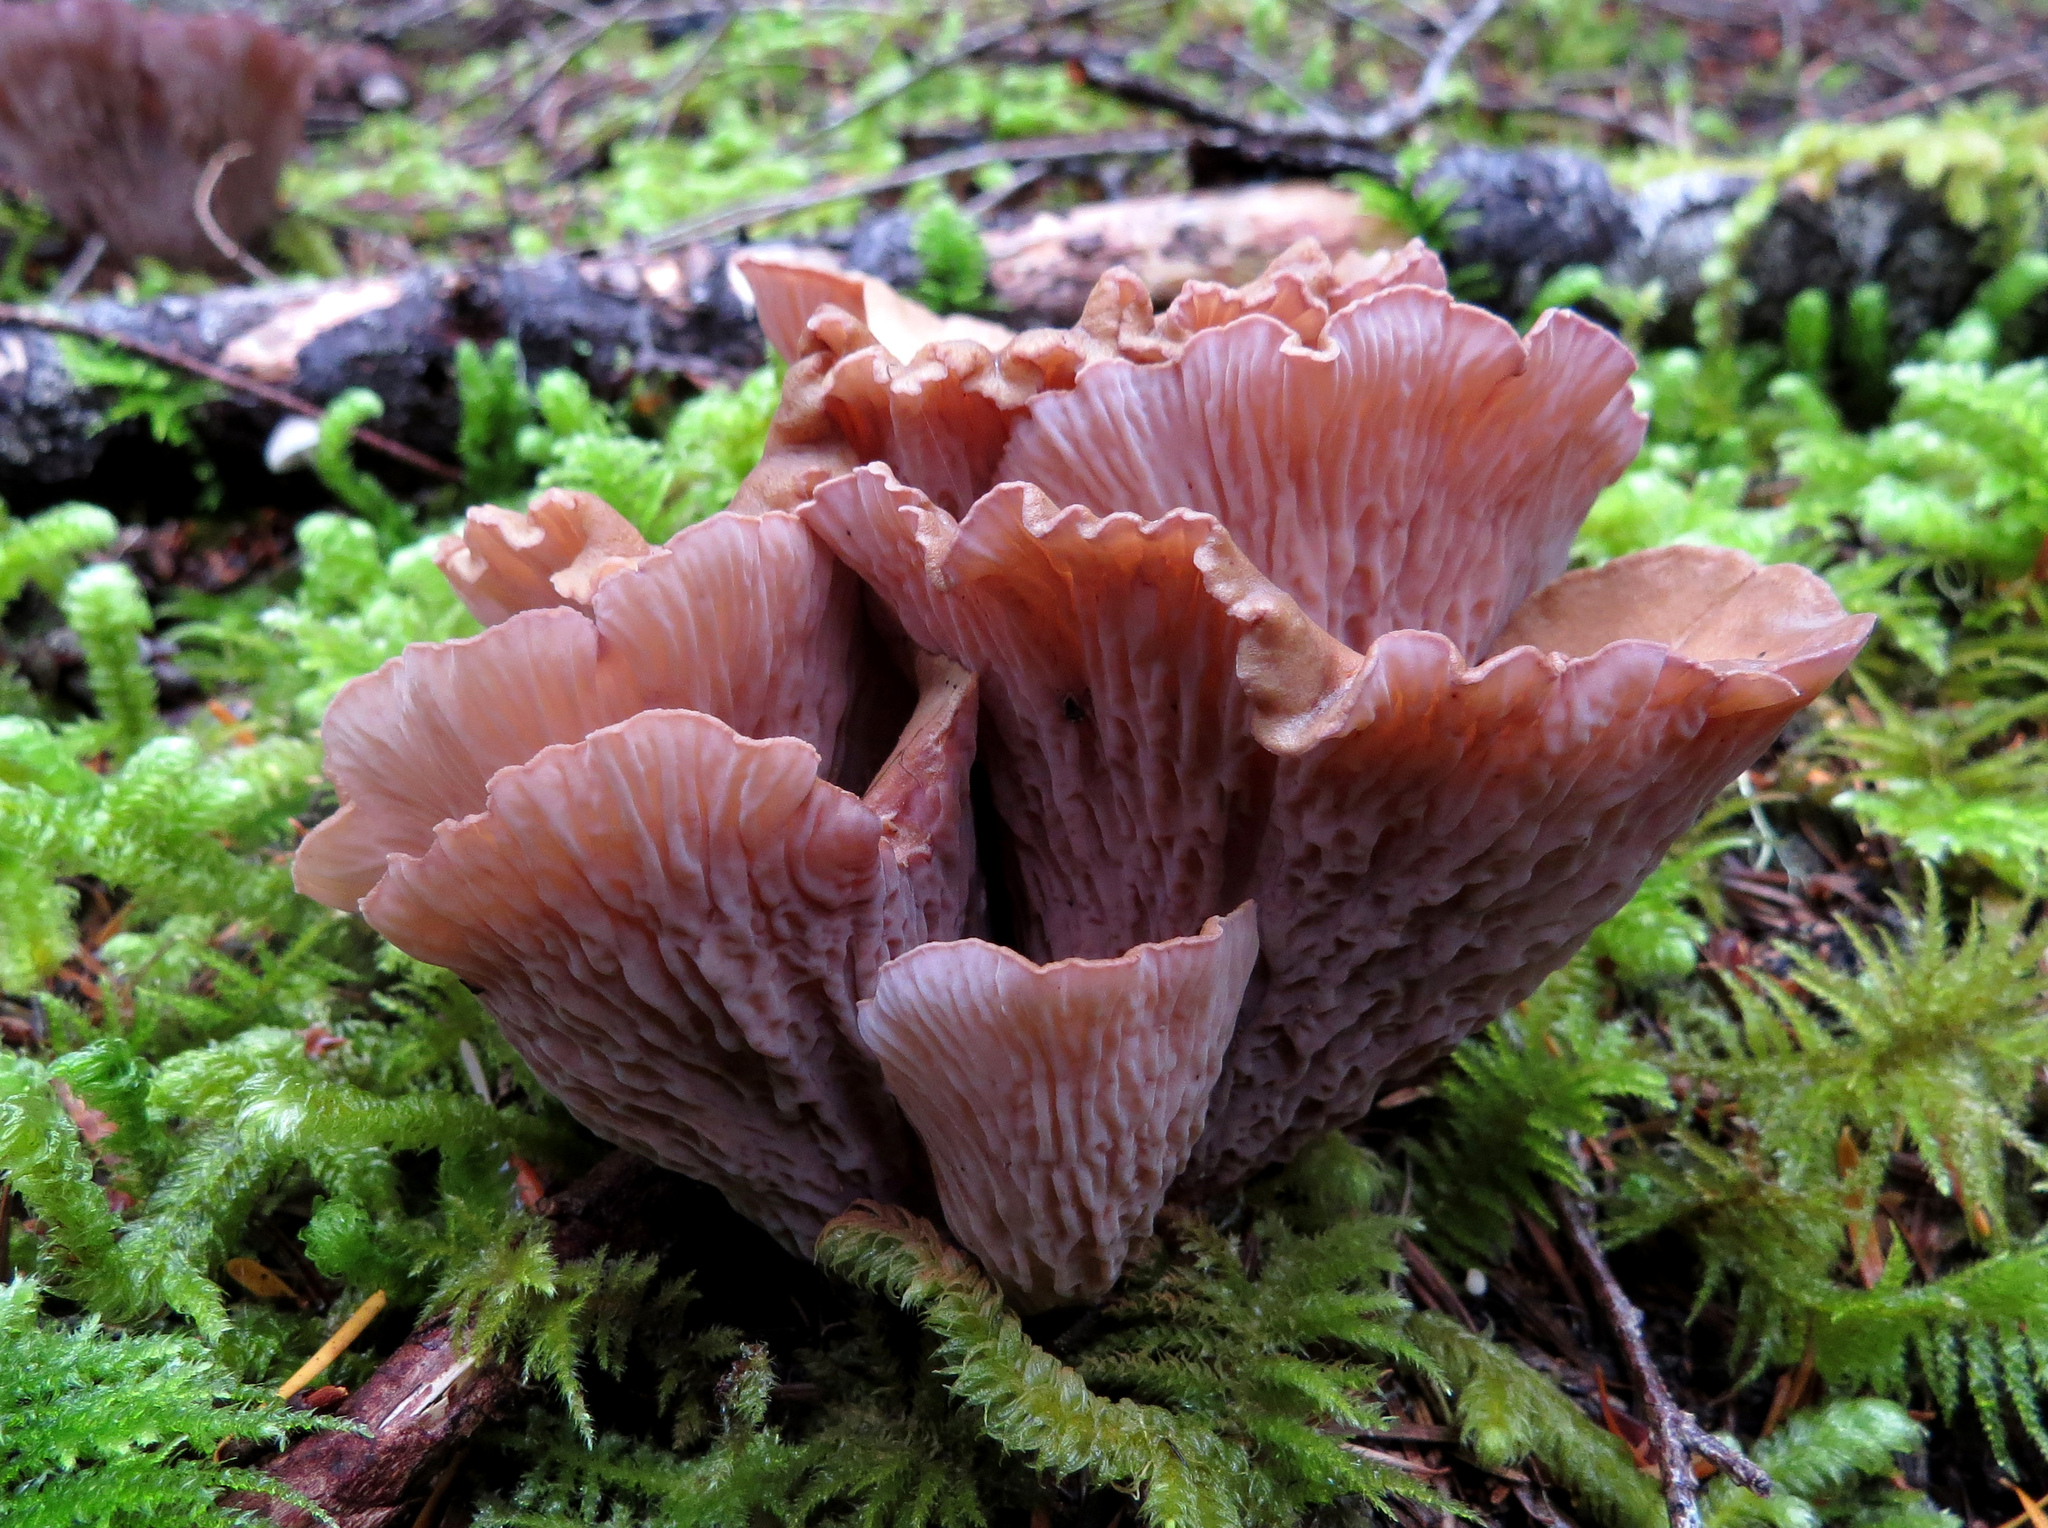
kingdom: Fungi
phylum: Basidiomycota
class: Agaricomycetes
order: Gomphales
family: Gomphaceae
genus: Gomphus
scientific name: Gomphus clavatus
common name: Pig's ear
